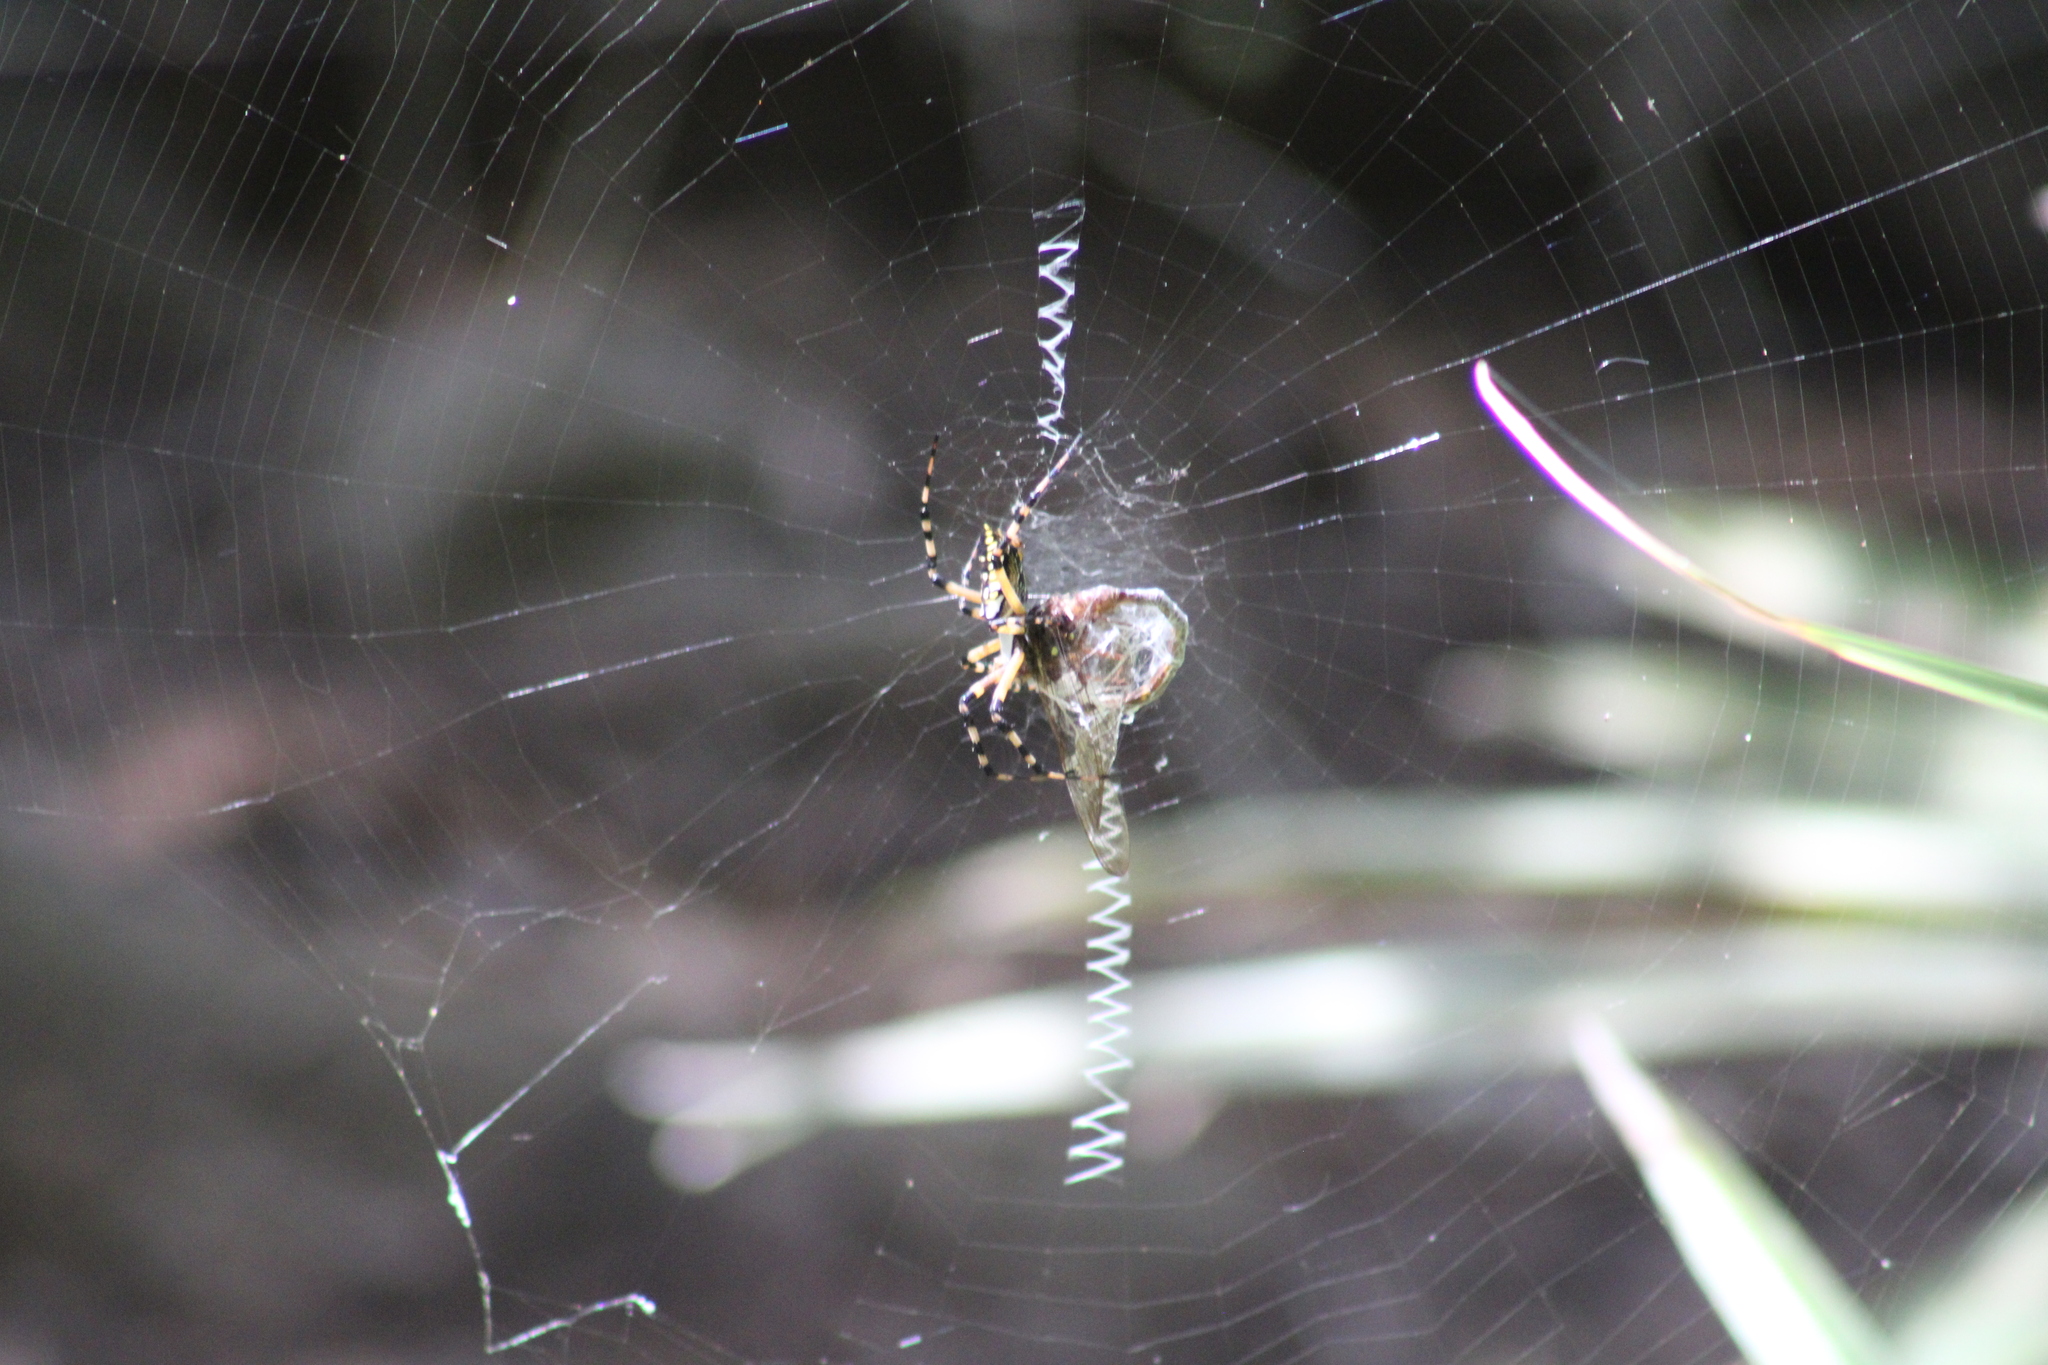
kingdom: Animalia
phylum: Arthropoda
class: Arachnida
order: Araneae
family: Araneidae
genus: Argiope
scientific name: Argiope aurantia
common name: Orb weavers
